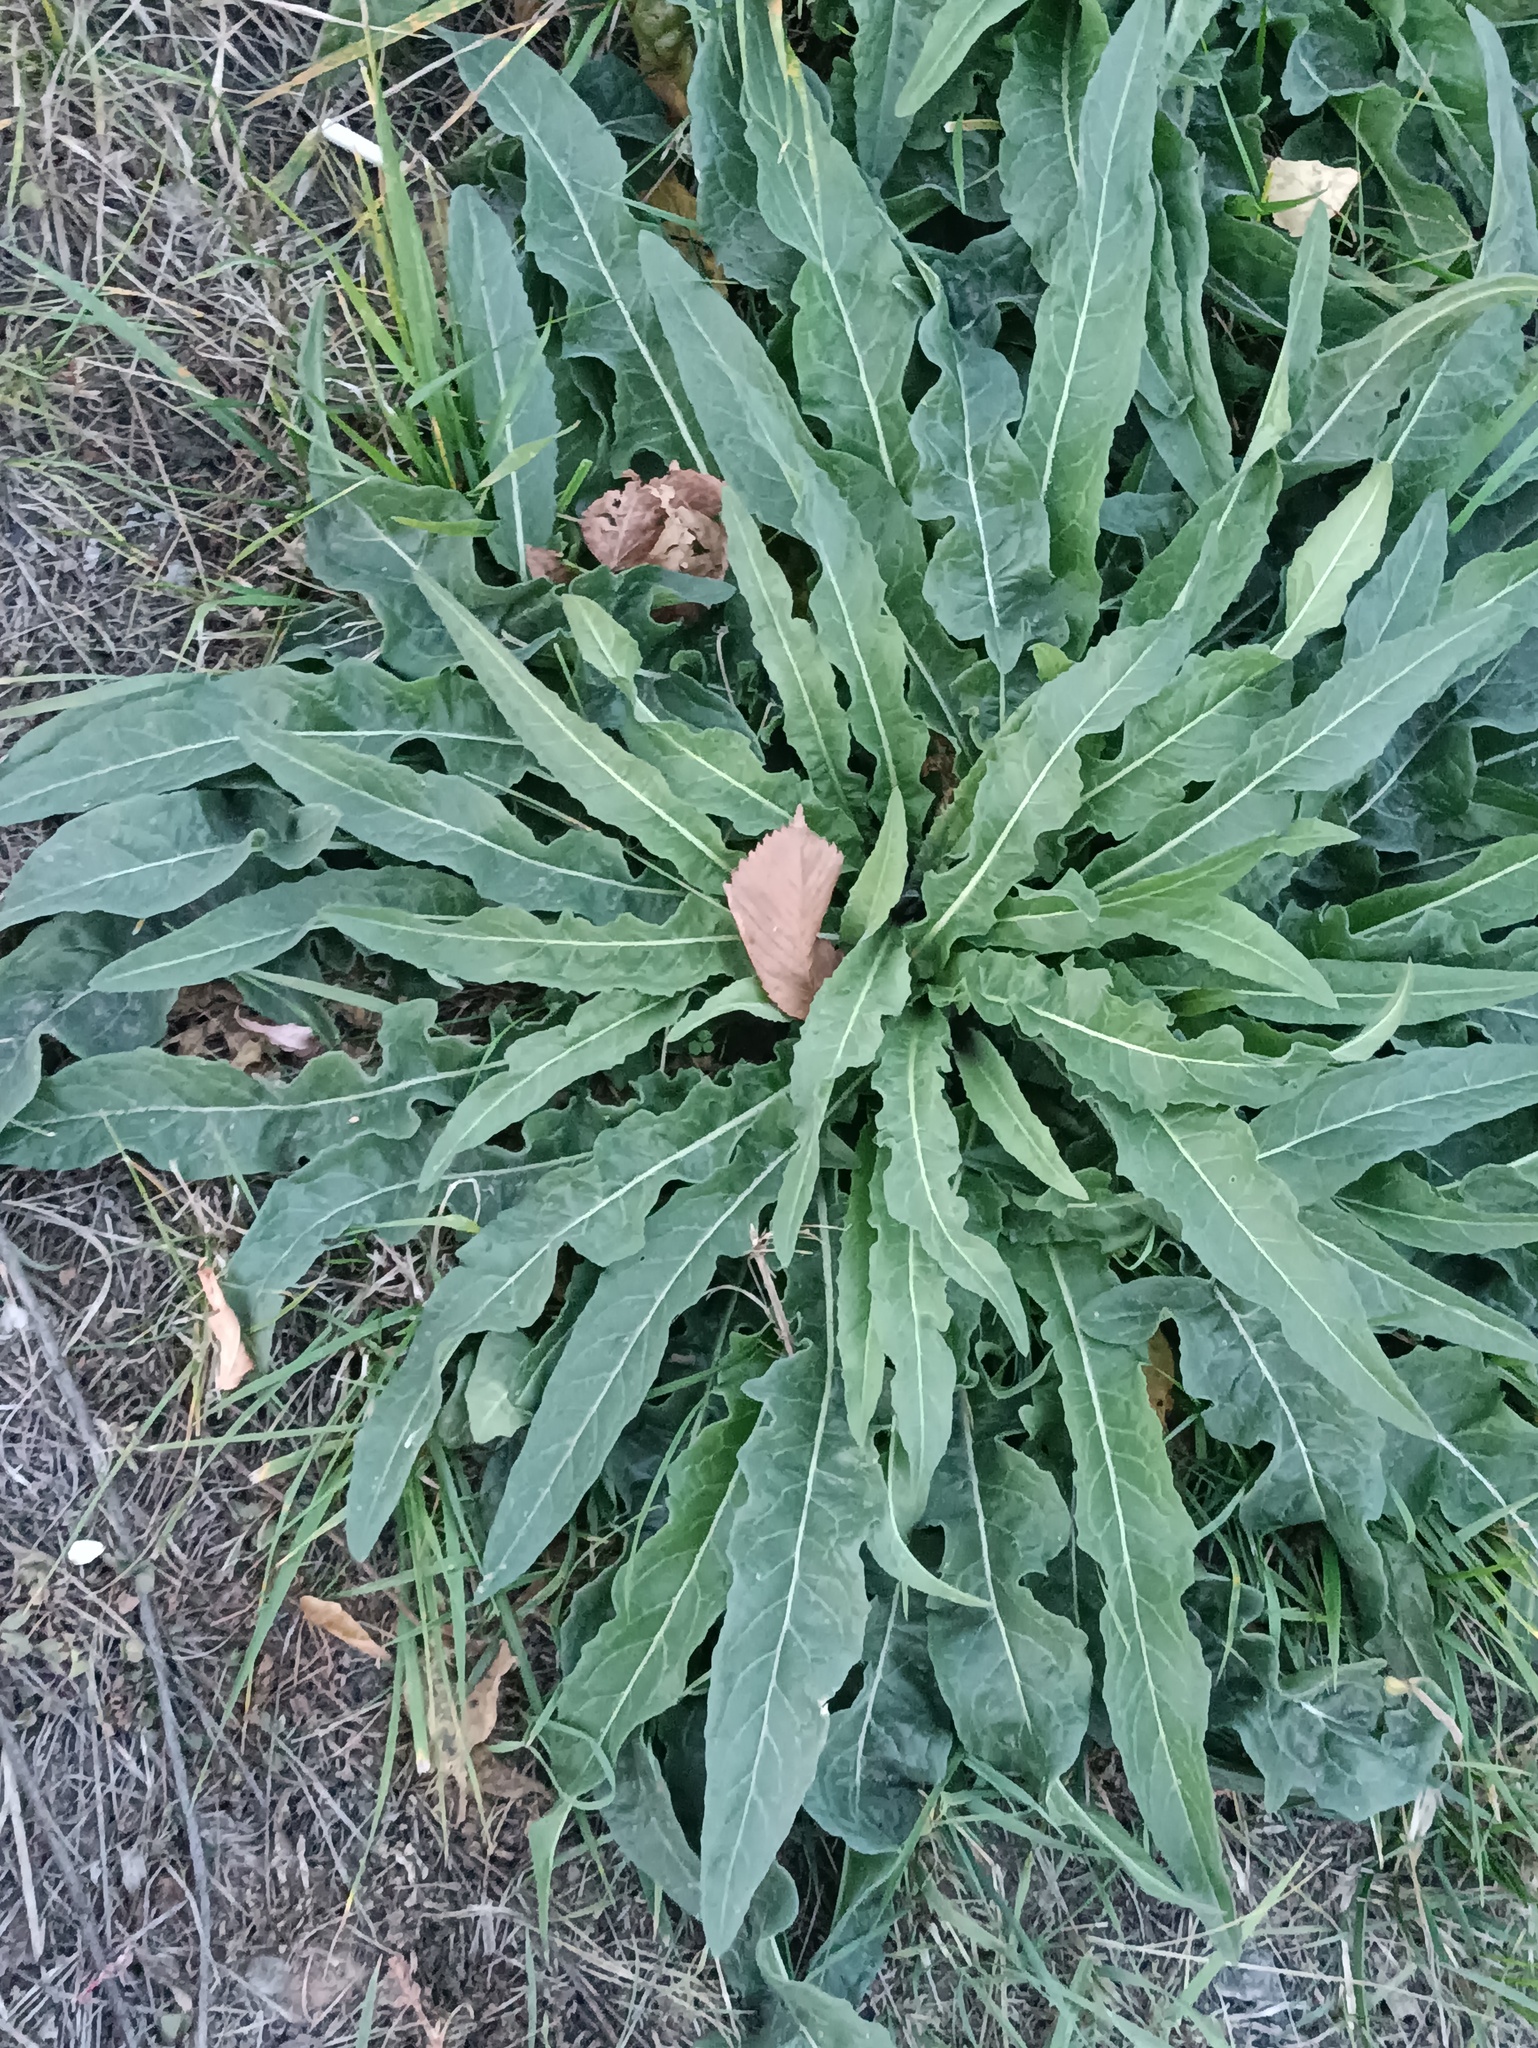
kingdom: Plantae
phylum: Tracheophyta
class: Magnoliopsida
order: Brassicales
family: Brassicaceae
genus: Bunias
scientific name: Bunias orientalis
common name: Warty-cabbage
